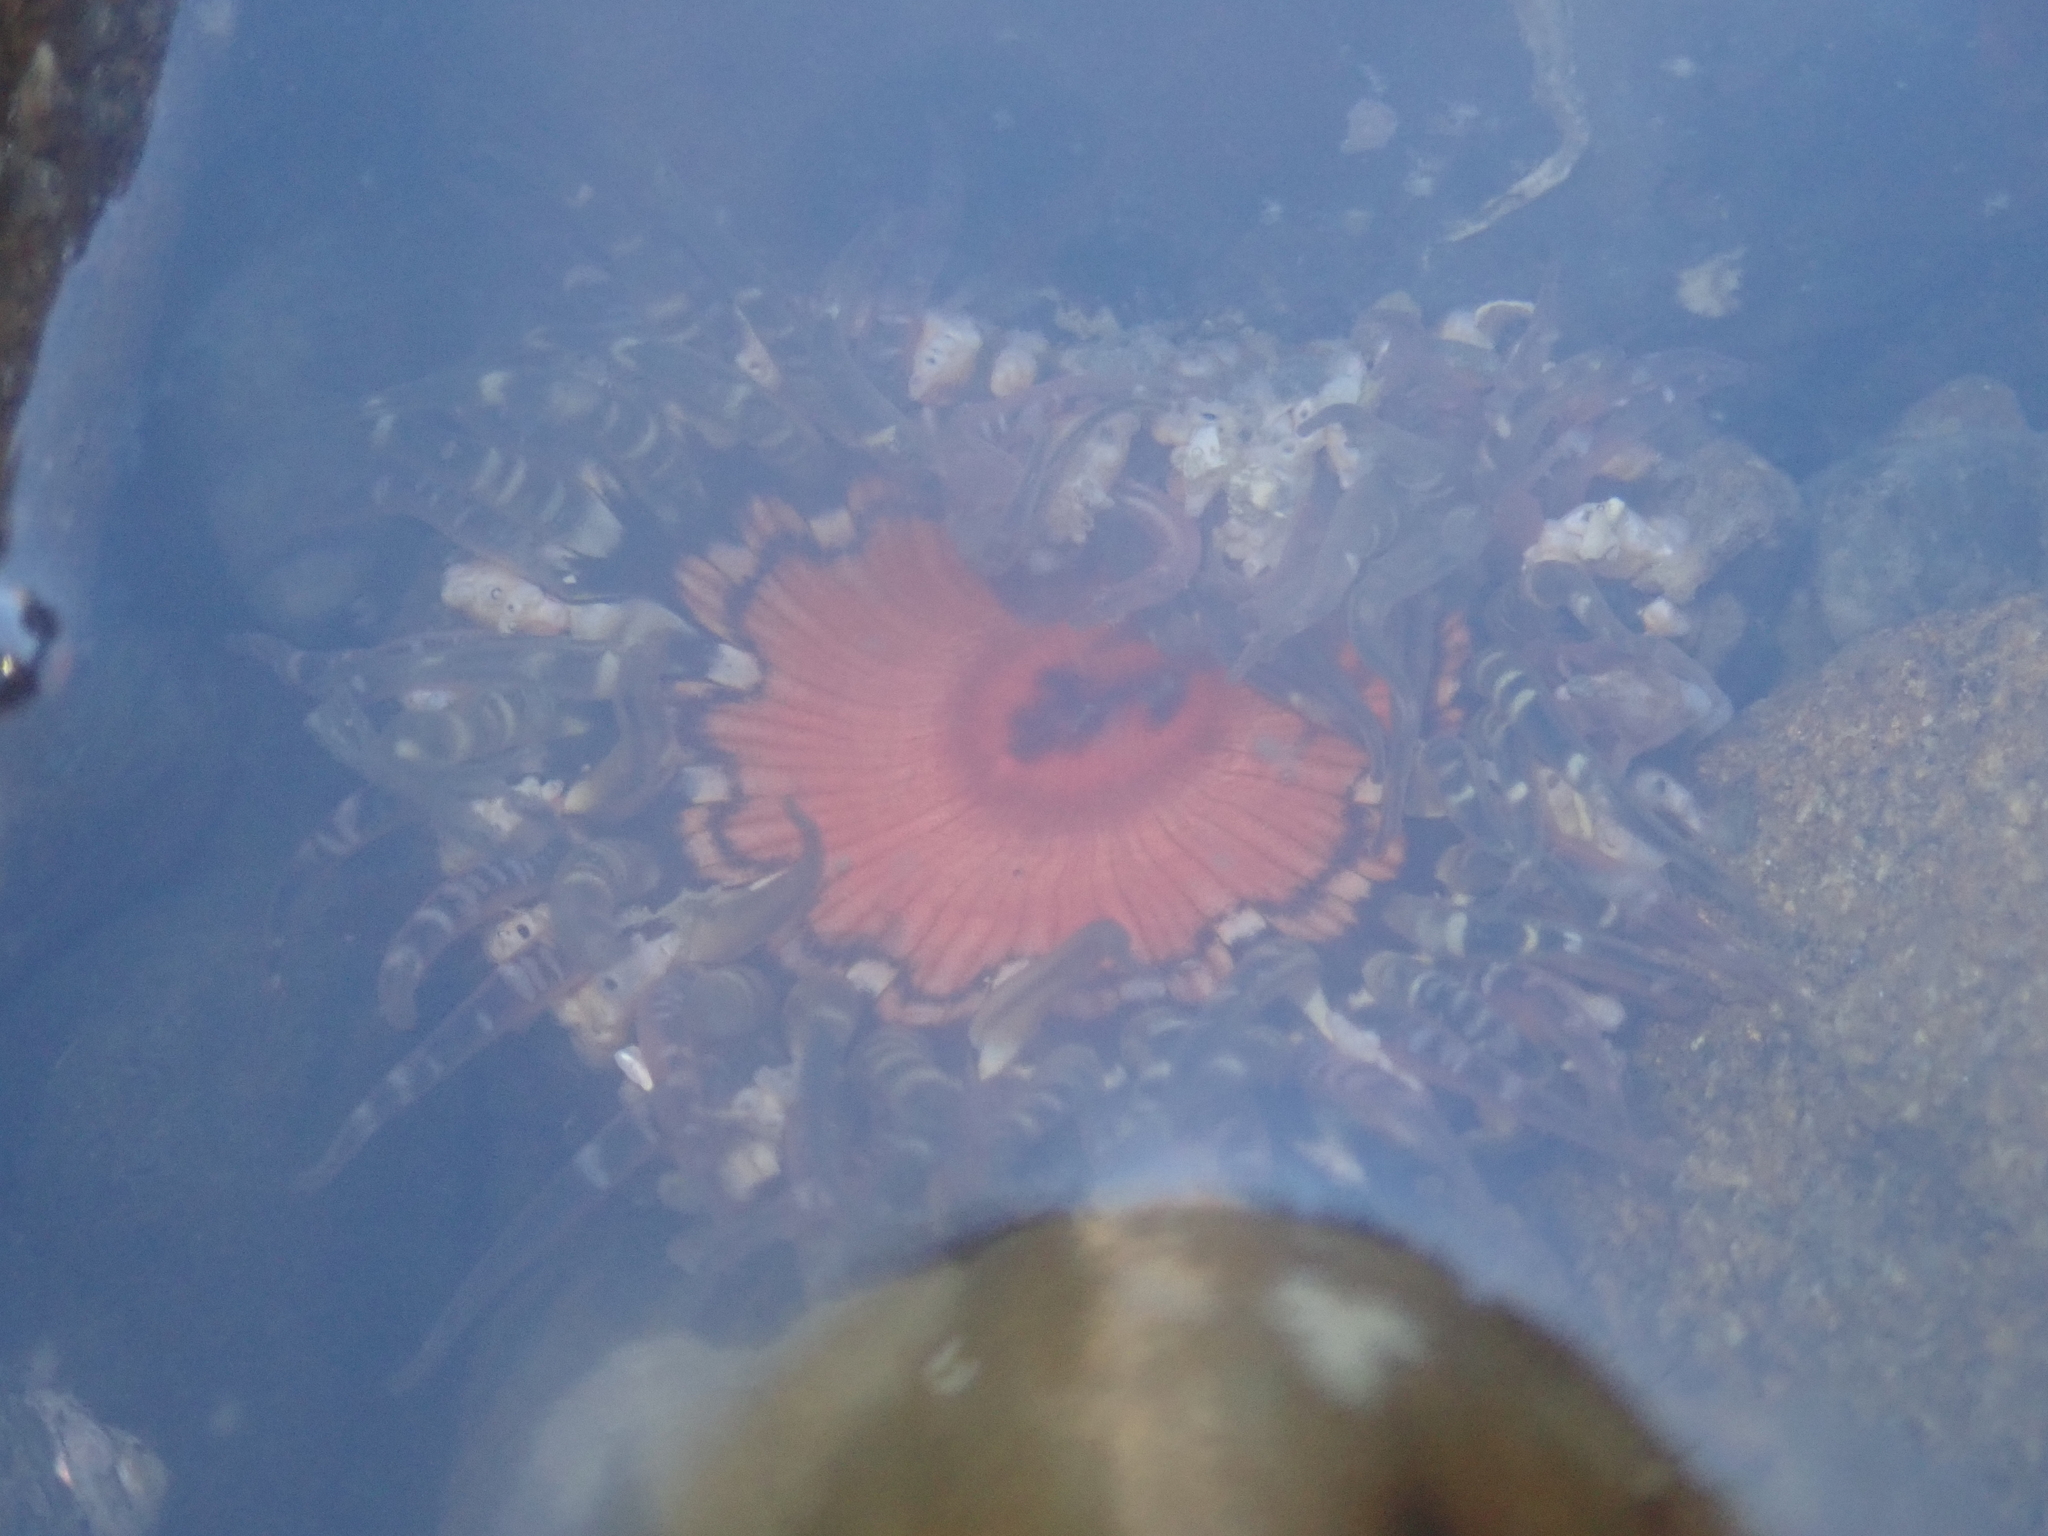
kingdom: Animalia
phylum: Cnidaria
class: Anthozoa
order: Actiniaria
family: Actiniidae
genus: Oulactis
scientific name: Oulactis muscosa
